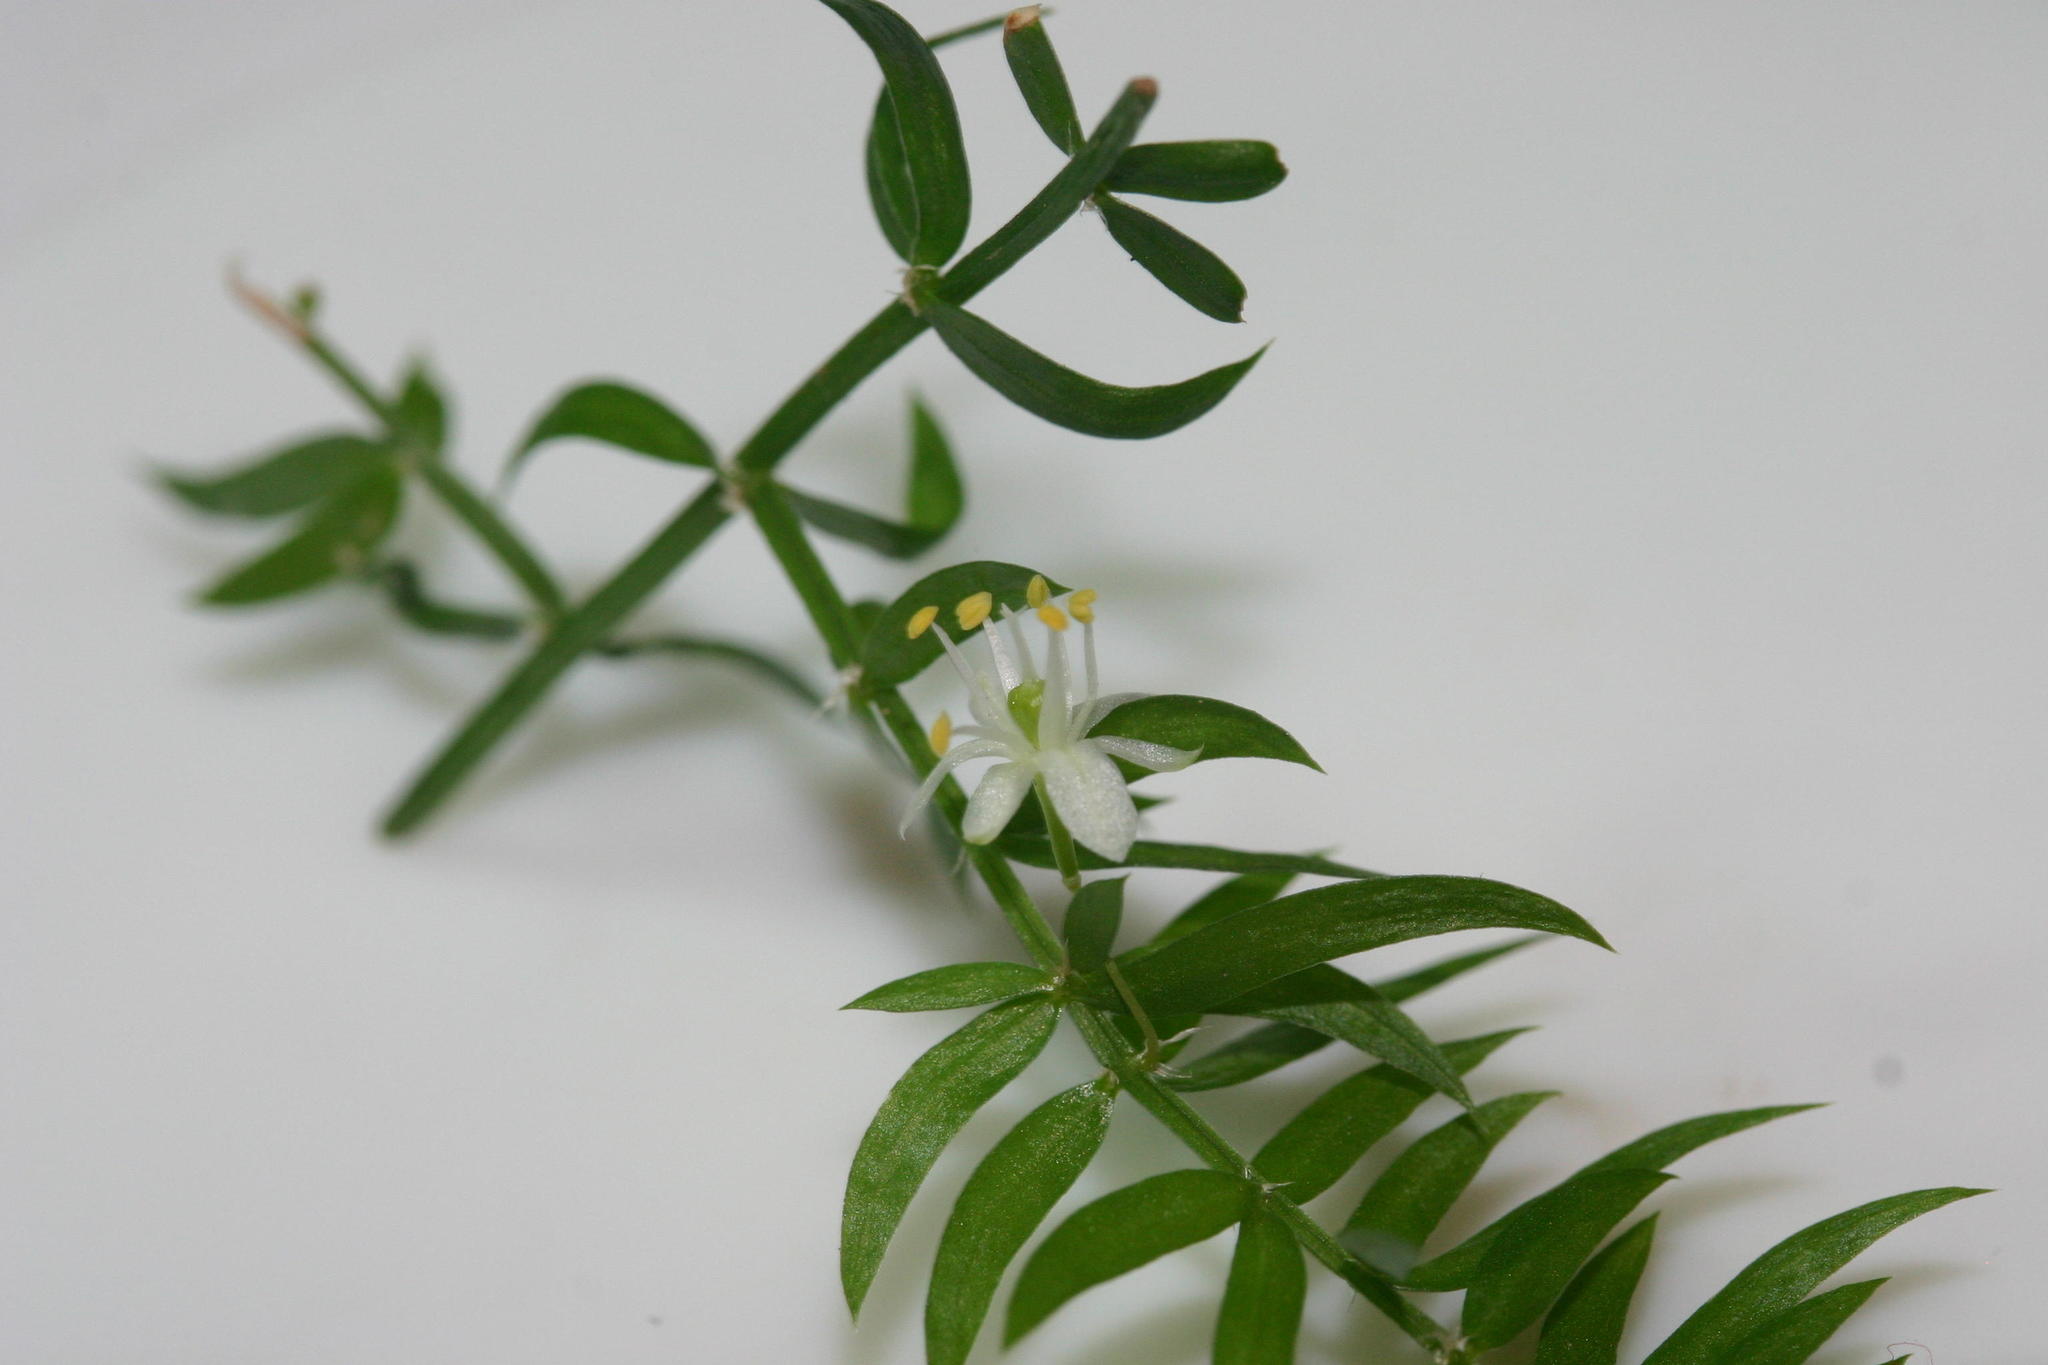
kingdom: Plantae
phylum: Tracheophyta
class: Liliopsida
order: Asparagales
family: Asparagaceae
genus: Asparagus
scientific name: Asparagus scandens
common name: Asparagus-fern
